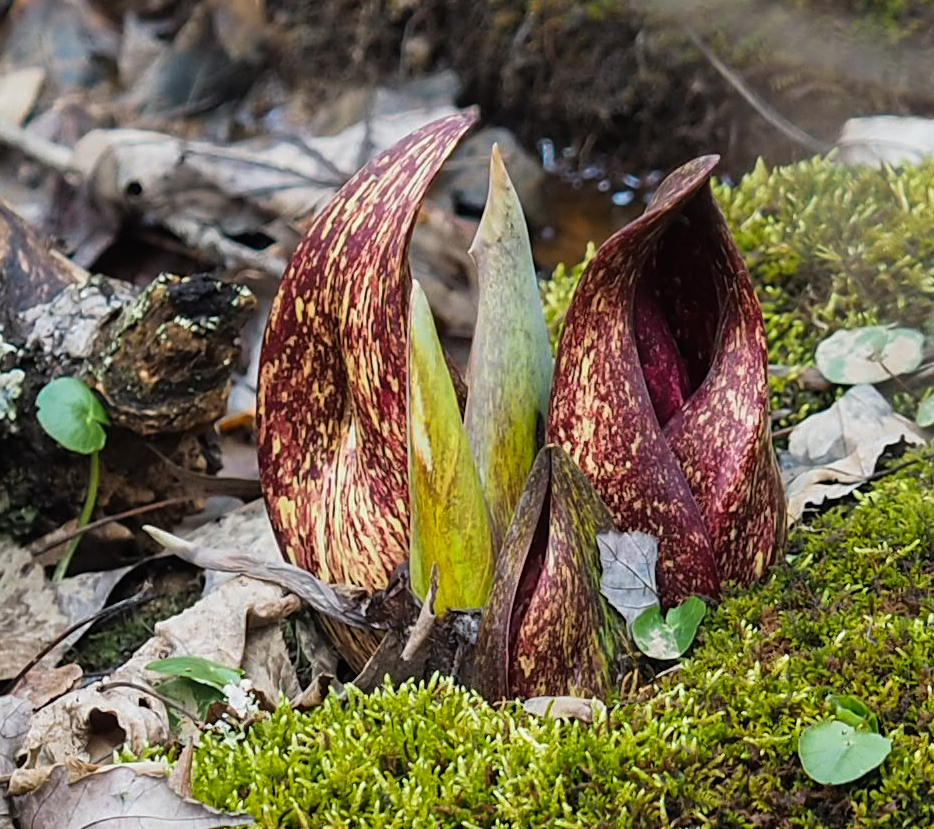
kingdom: Plantae
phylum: Tracheophyta
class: Liliopsida
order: Alismatales
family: Araceae
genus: Symplocarpus
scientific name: Symplocarpus foetidus
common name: Eastern skunk cabbage
